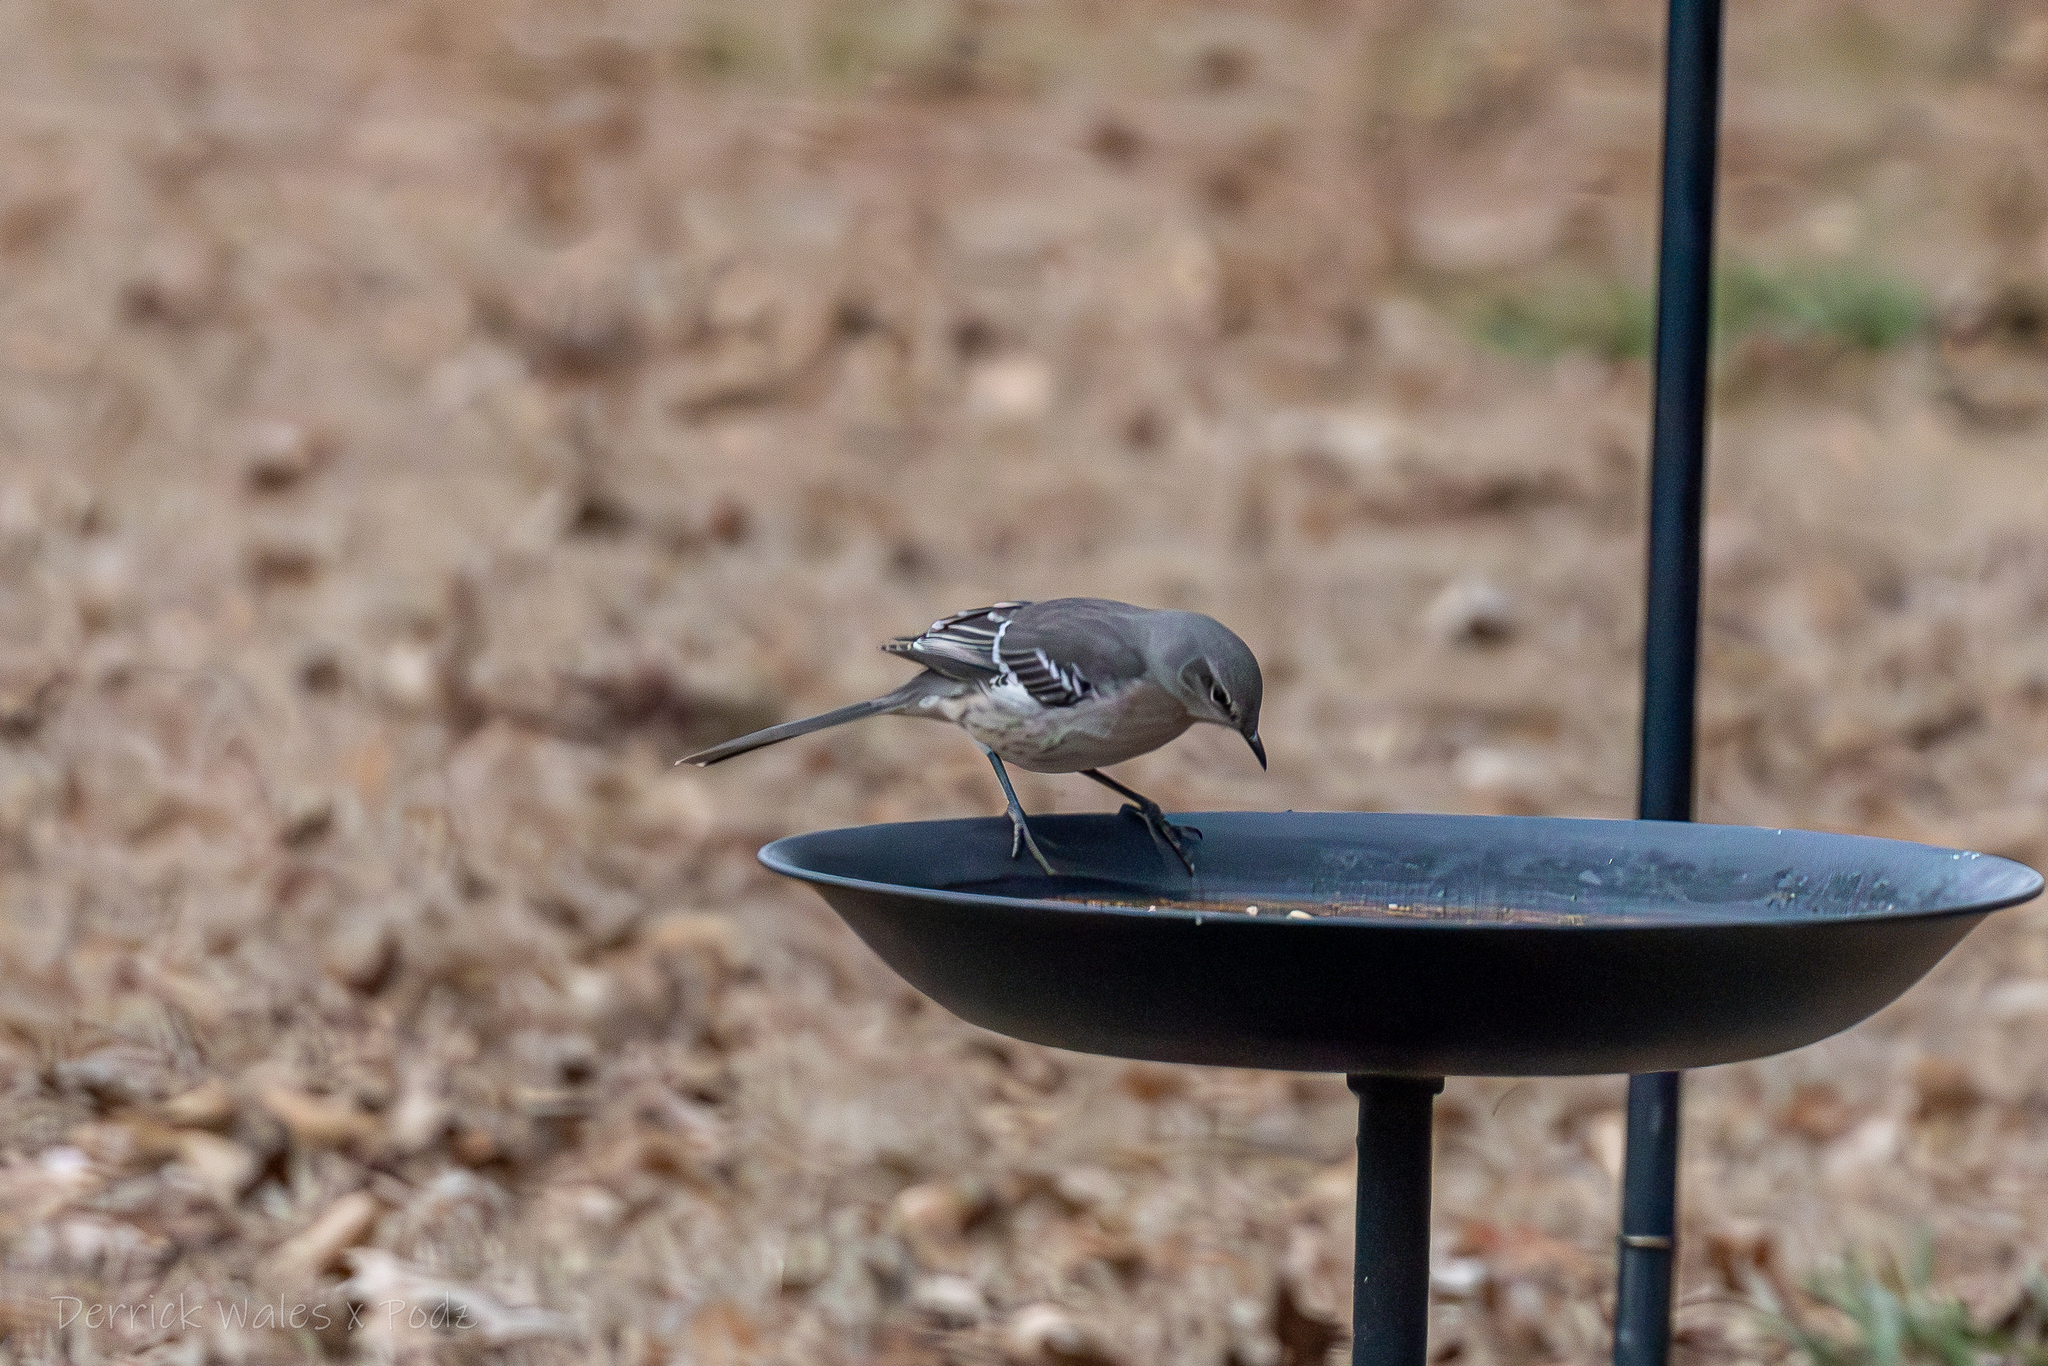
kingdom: Animalia
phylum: Chordata
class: Aves
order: Passeriformes
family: Mimidae
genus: Mimus
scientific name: Mimus polyglottos
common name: Northern mockingbird
